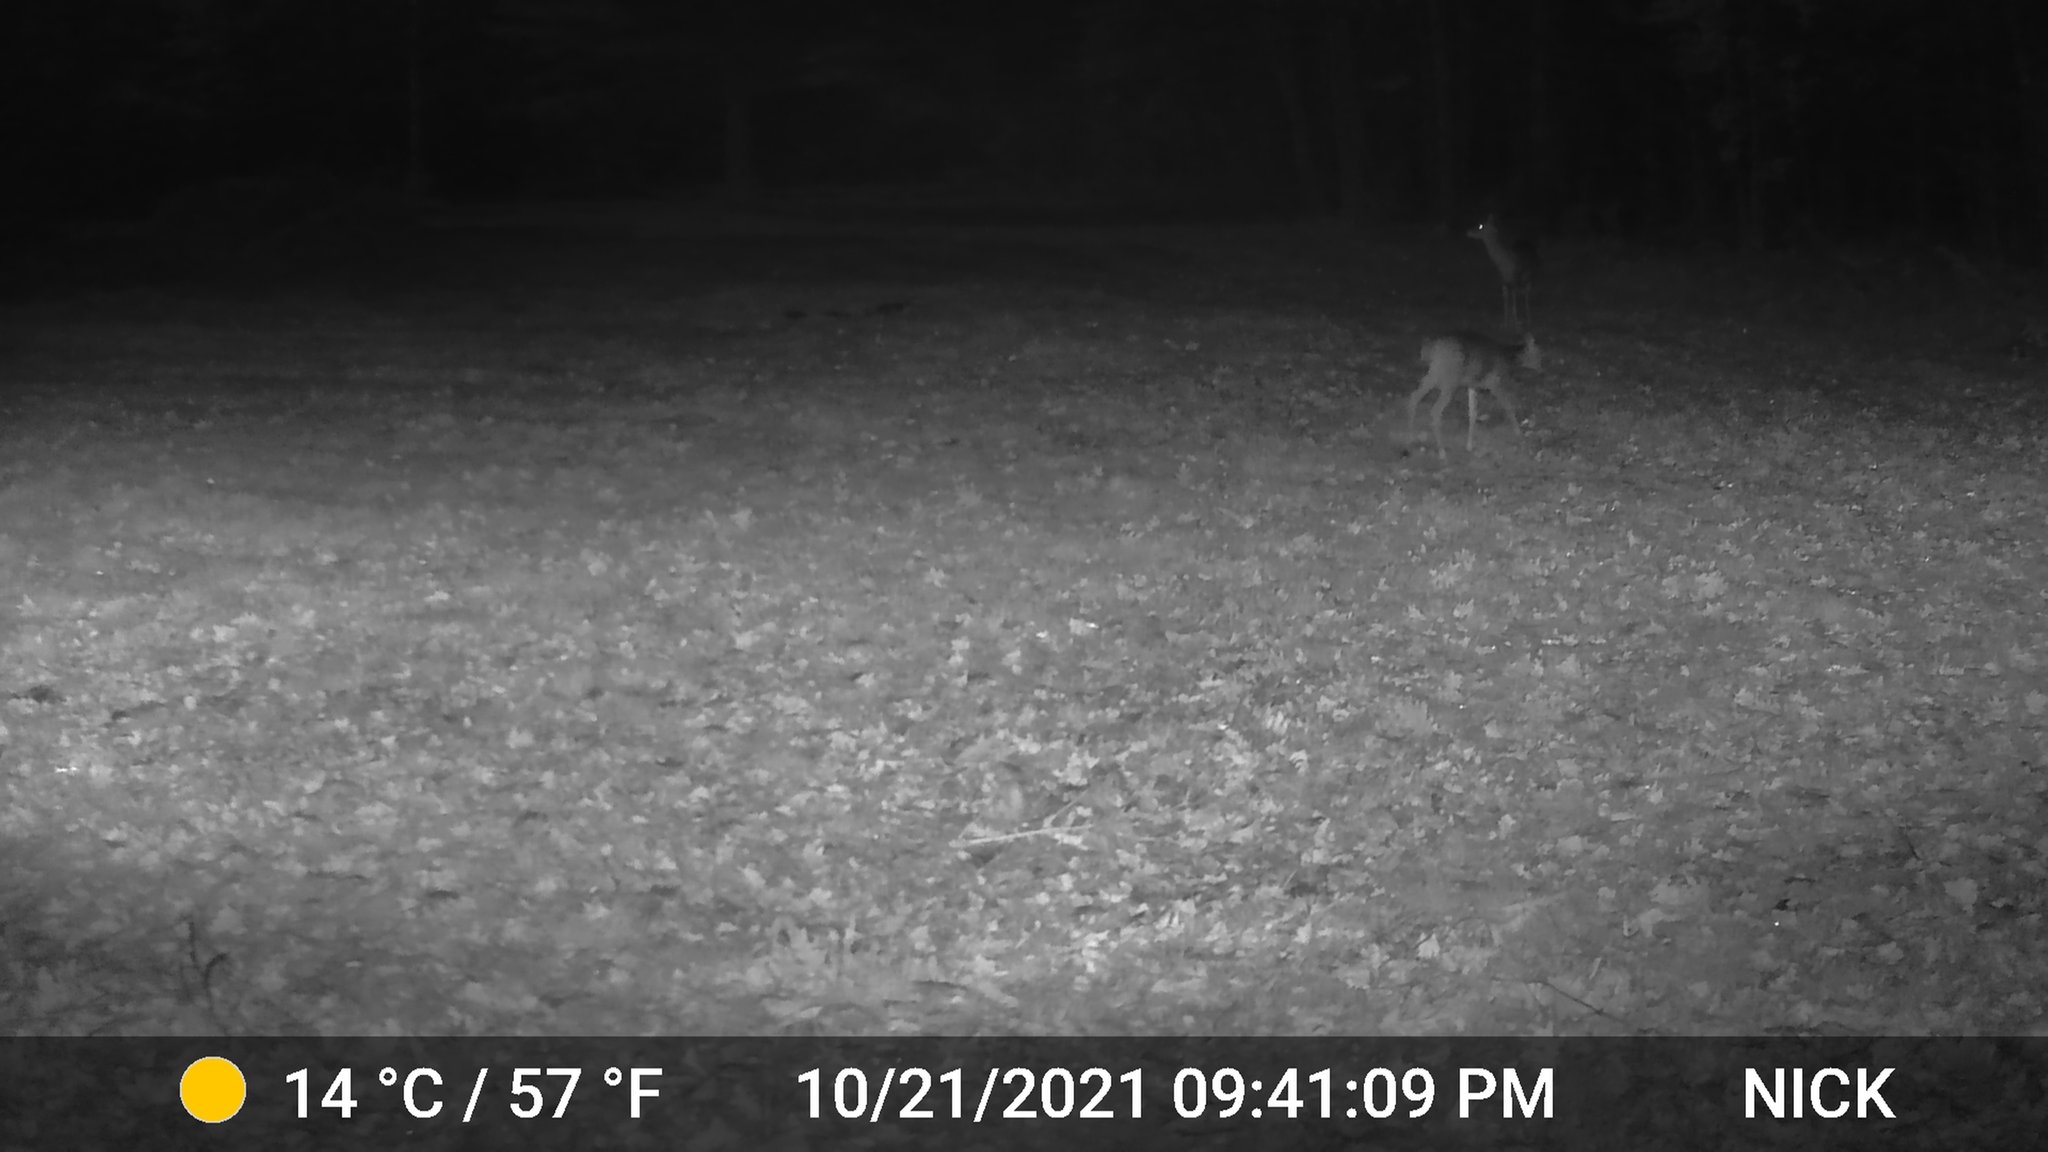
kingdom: Animalia
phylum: Chordata
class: Mammalia
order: Artiodactyla
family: Cervidae
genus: Odocoileus
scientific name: Odocoileus virginianus
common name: White-tailed deer
